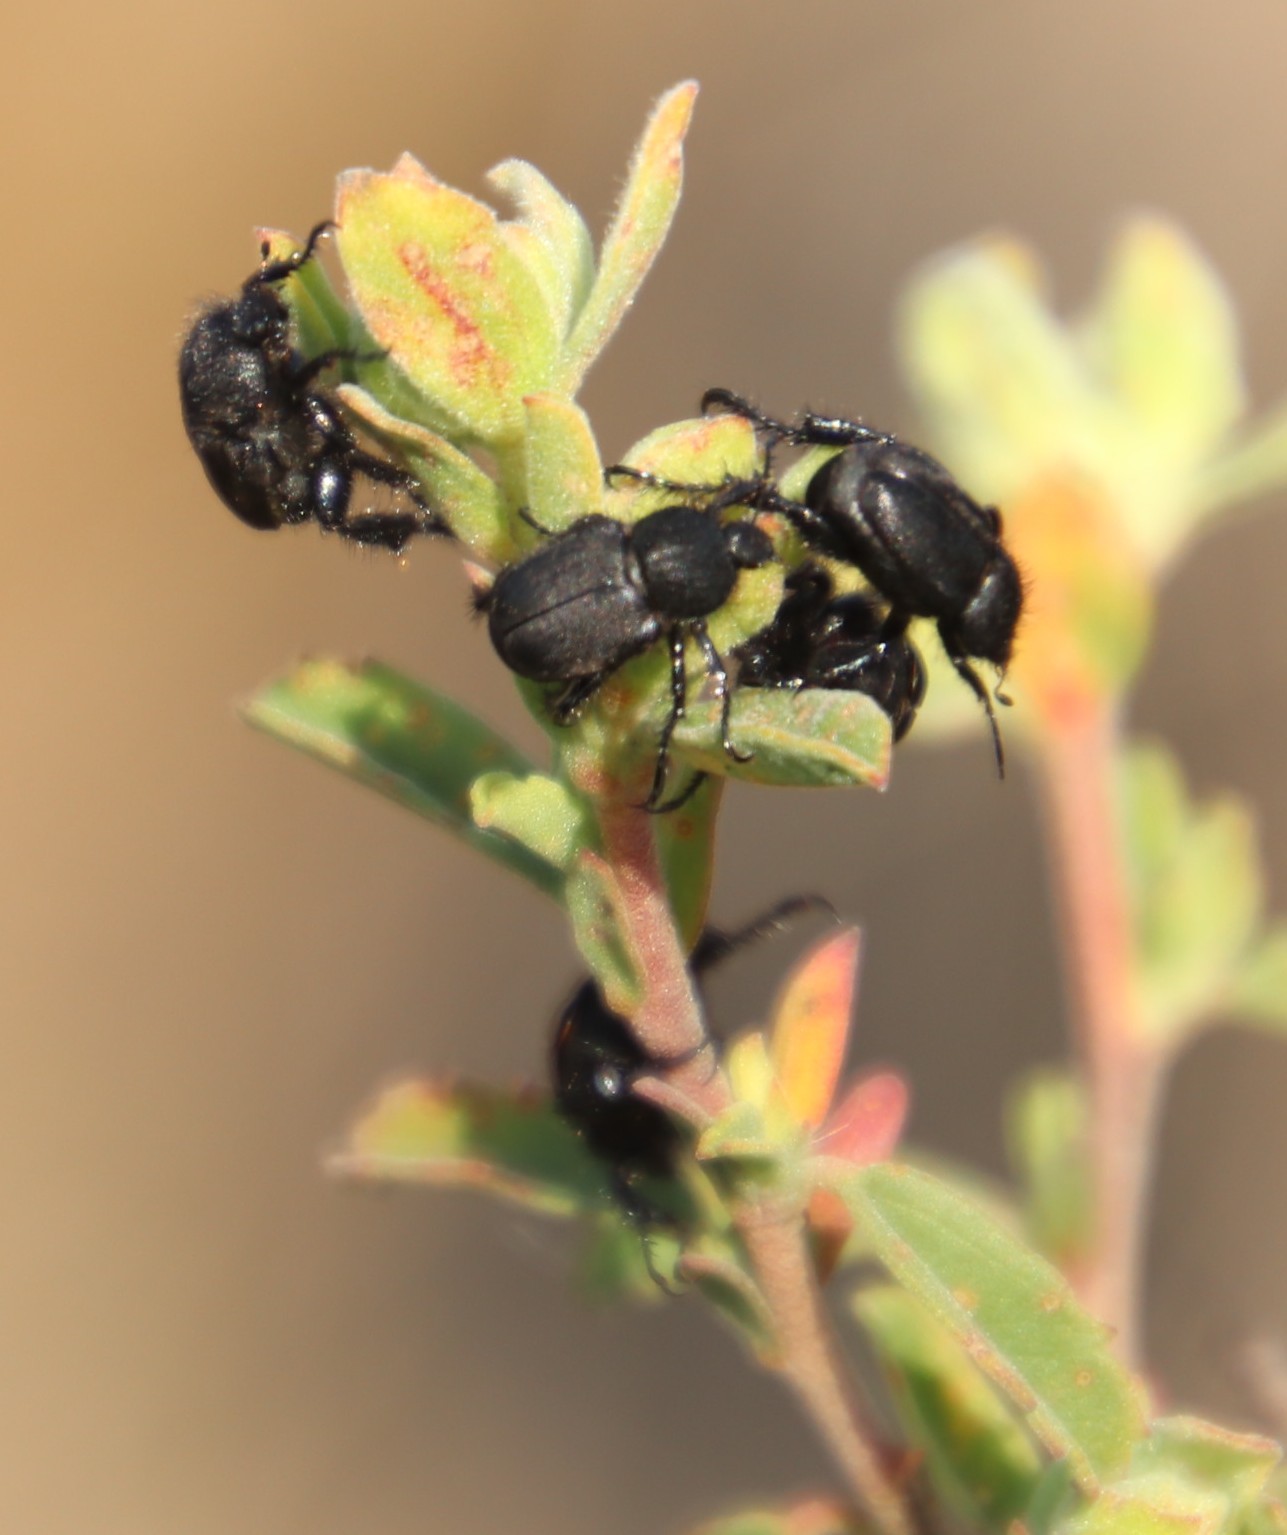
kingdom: Plantae
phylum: Tracheophyta
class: Magnoliopsida
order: Malvales
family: Malvaceae
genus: Hermannia
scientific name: Hermannia multiflora
